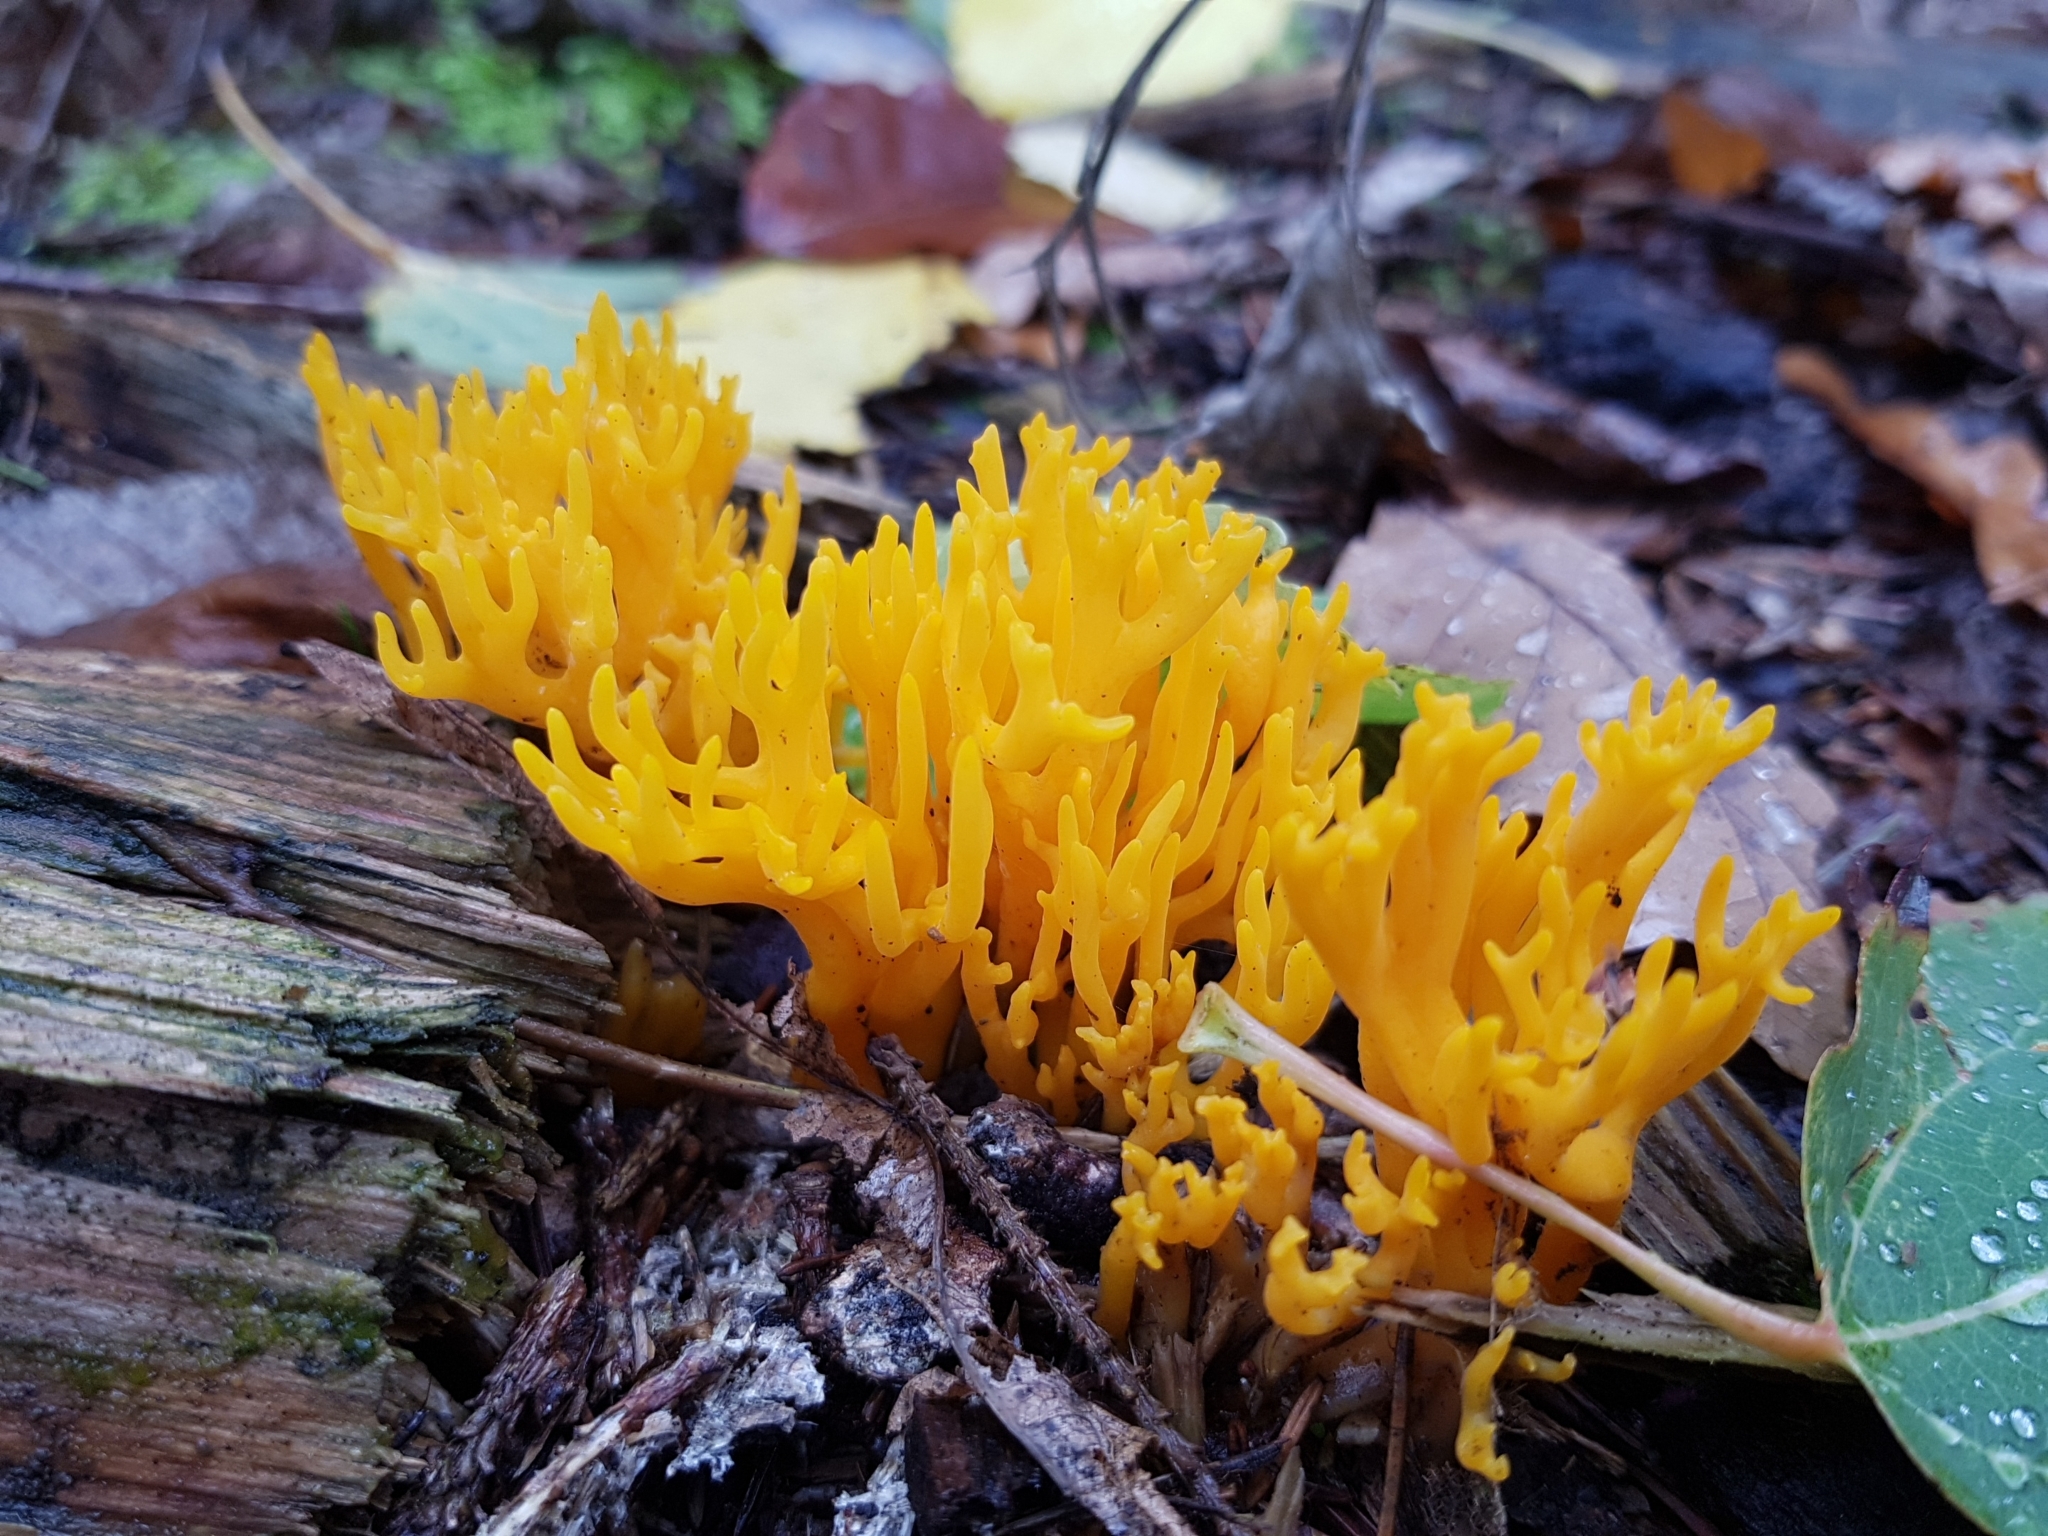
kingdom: Fungi
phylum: Basidiomycota
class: Dacrymycetes
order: Dacrymycetales
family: Dacrymycetaceae
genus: Calocera
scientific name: Calocera viscosa
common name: Yellow stagshorn
